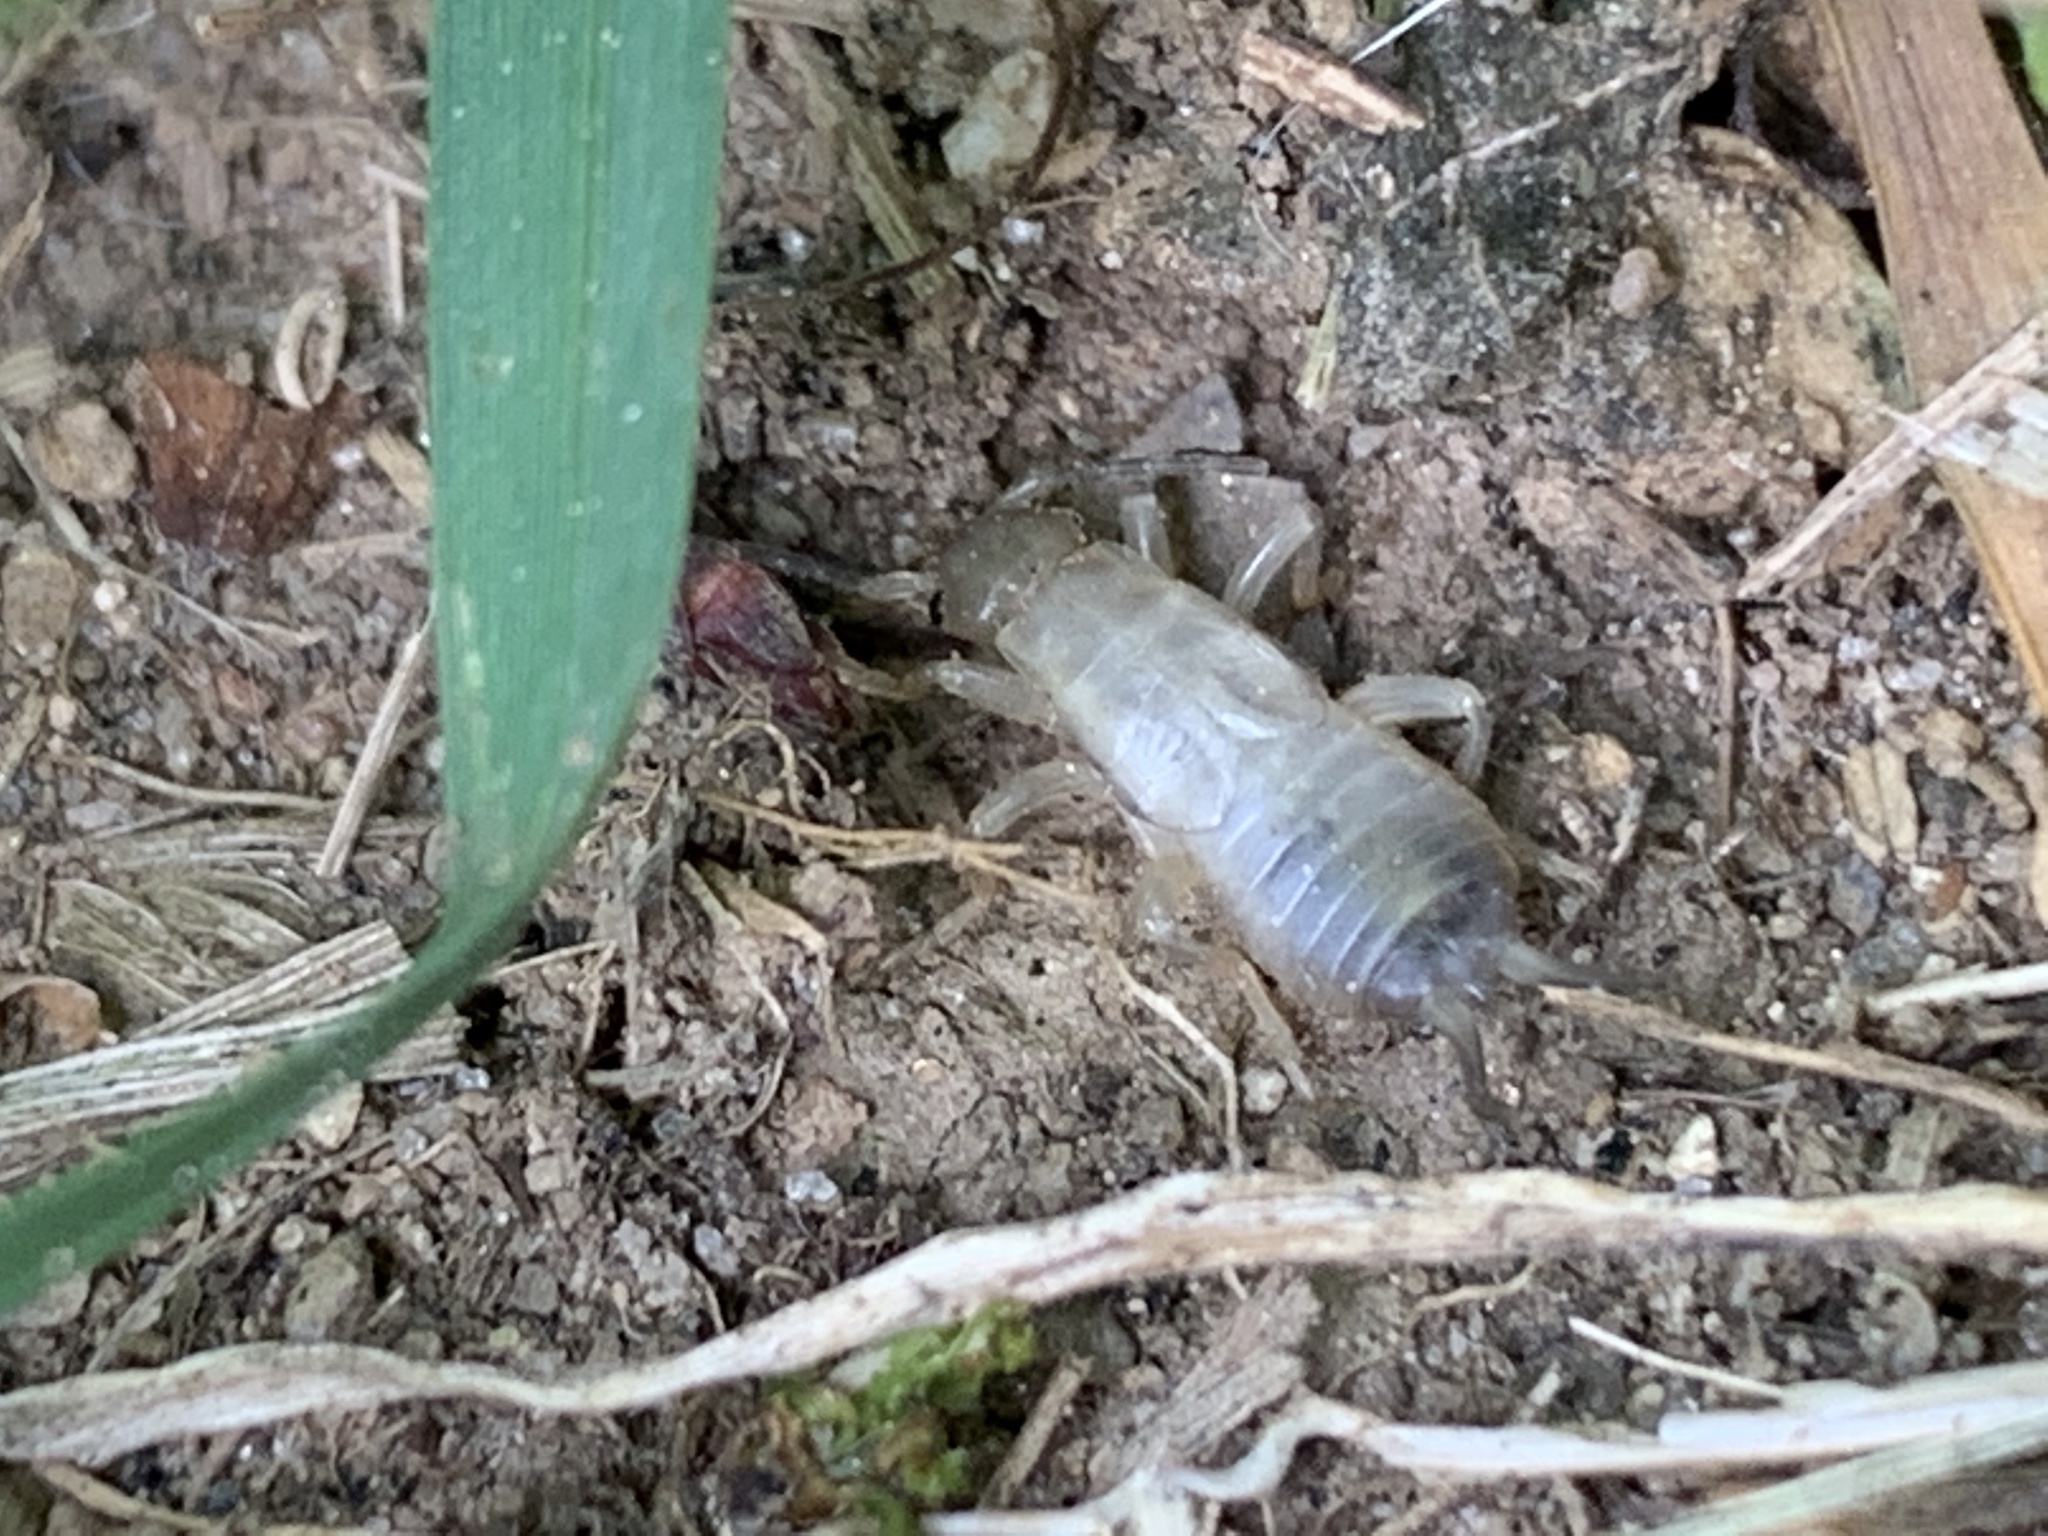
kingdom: Animalia
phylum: Arthropoda
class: Insecta
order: Dermaptera
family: Forficulidae
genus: Forficula
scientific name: Forficula
